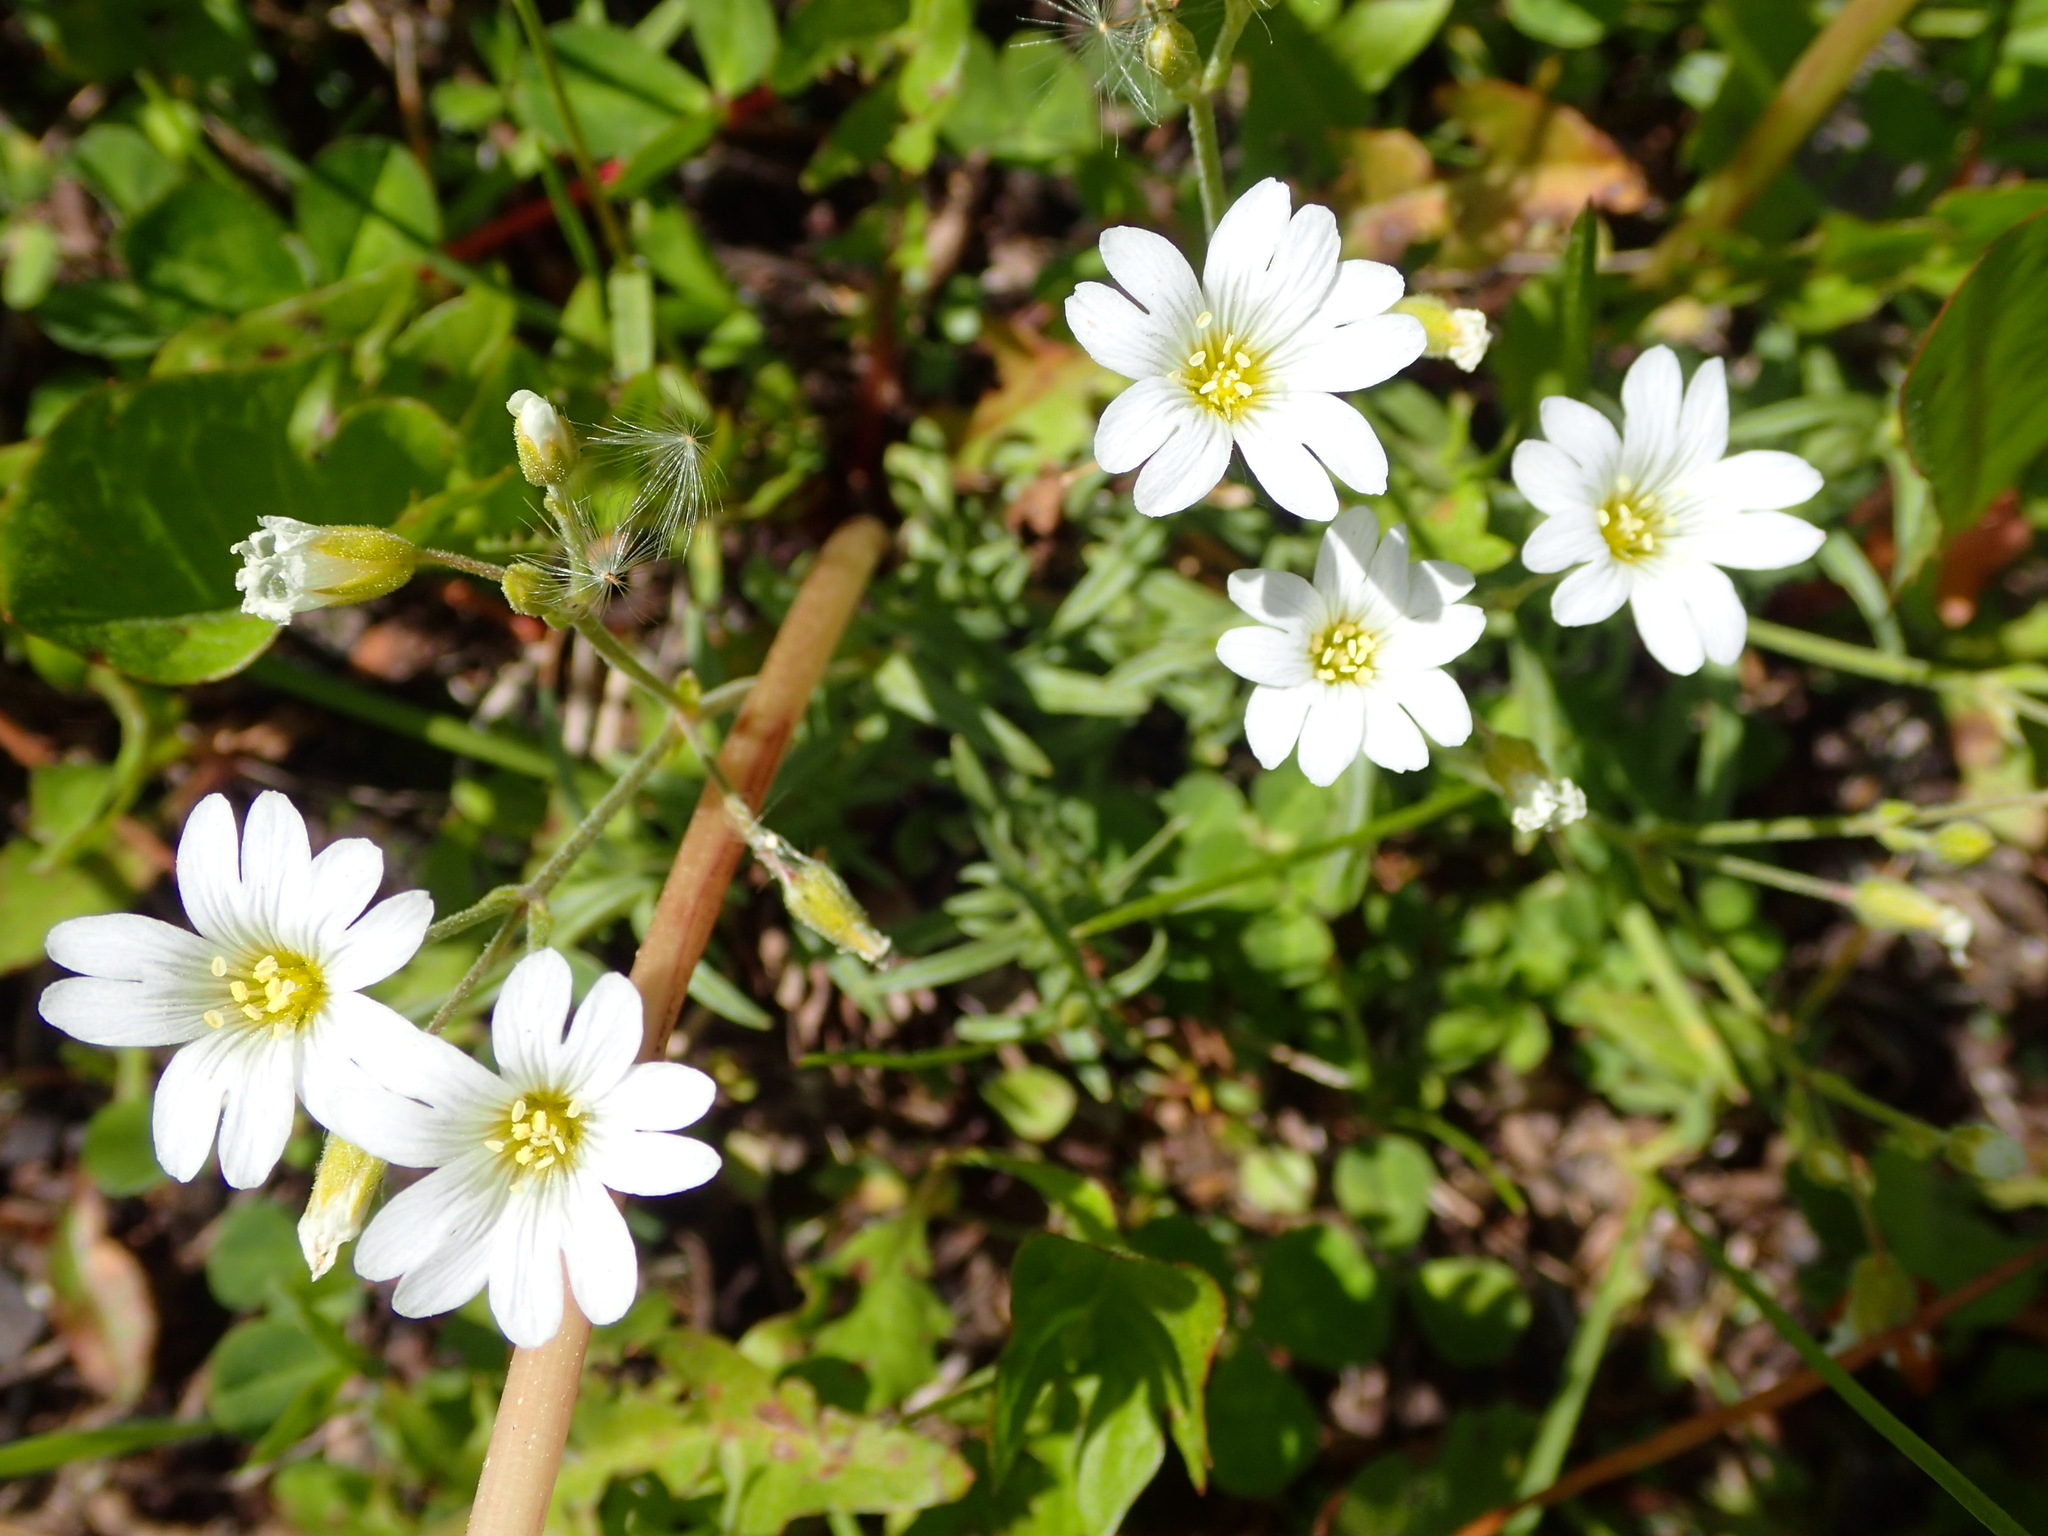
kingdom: Plantae
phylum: Tracheophyta
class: Magnoliopsida
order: Caryophyllales
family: Caryophyllaceae
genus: Cerastium
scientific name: Cerastium arvense
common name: Field mouse-ear
